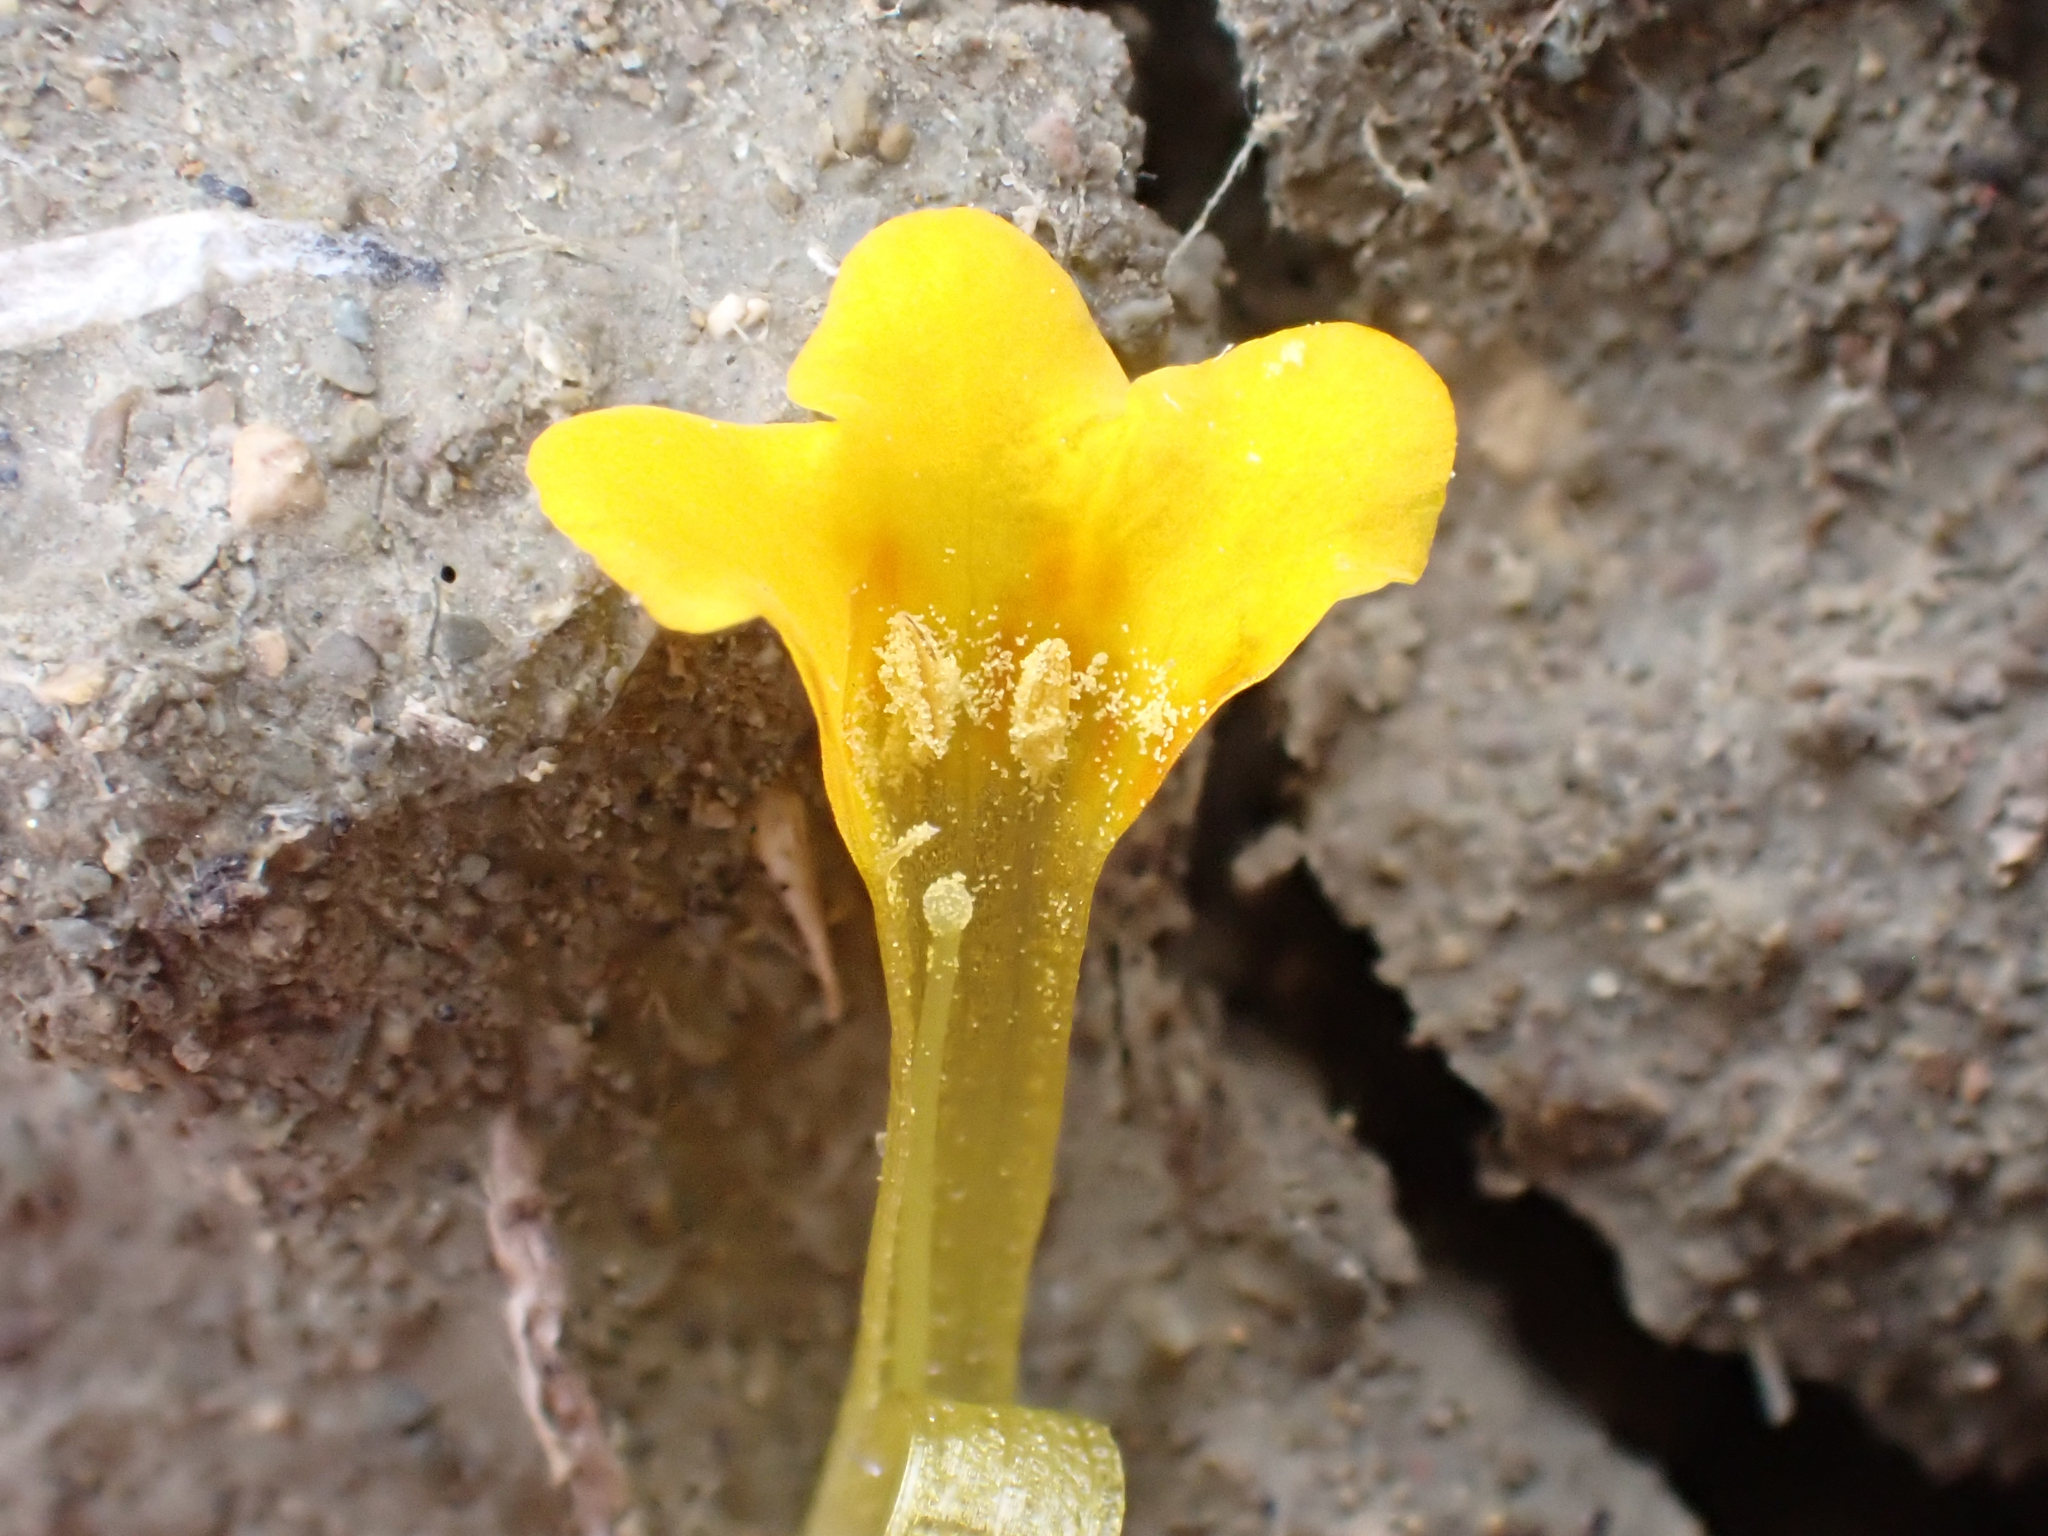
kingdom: Plantae
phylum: Tracheophyta
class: Magnoliopsida
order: Boraginales
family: Boraginaceae
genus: Amsinckia
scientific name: Amsinckia vernicosa
